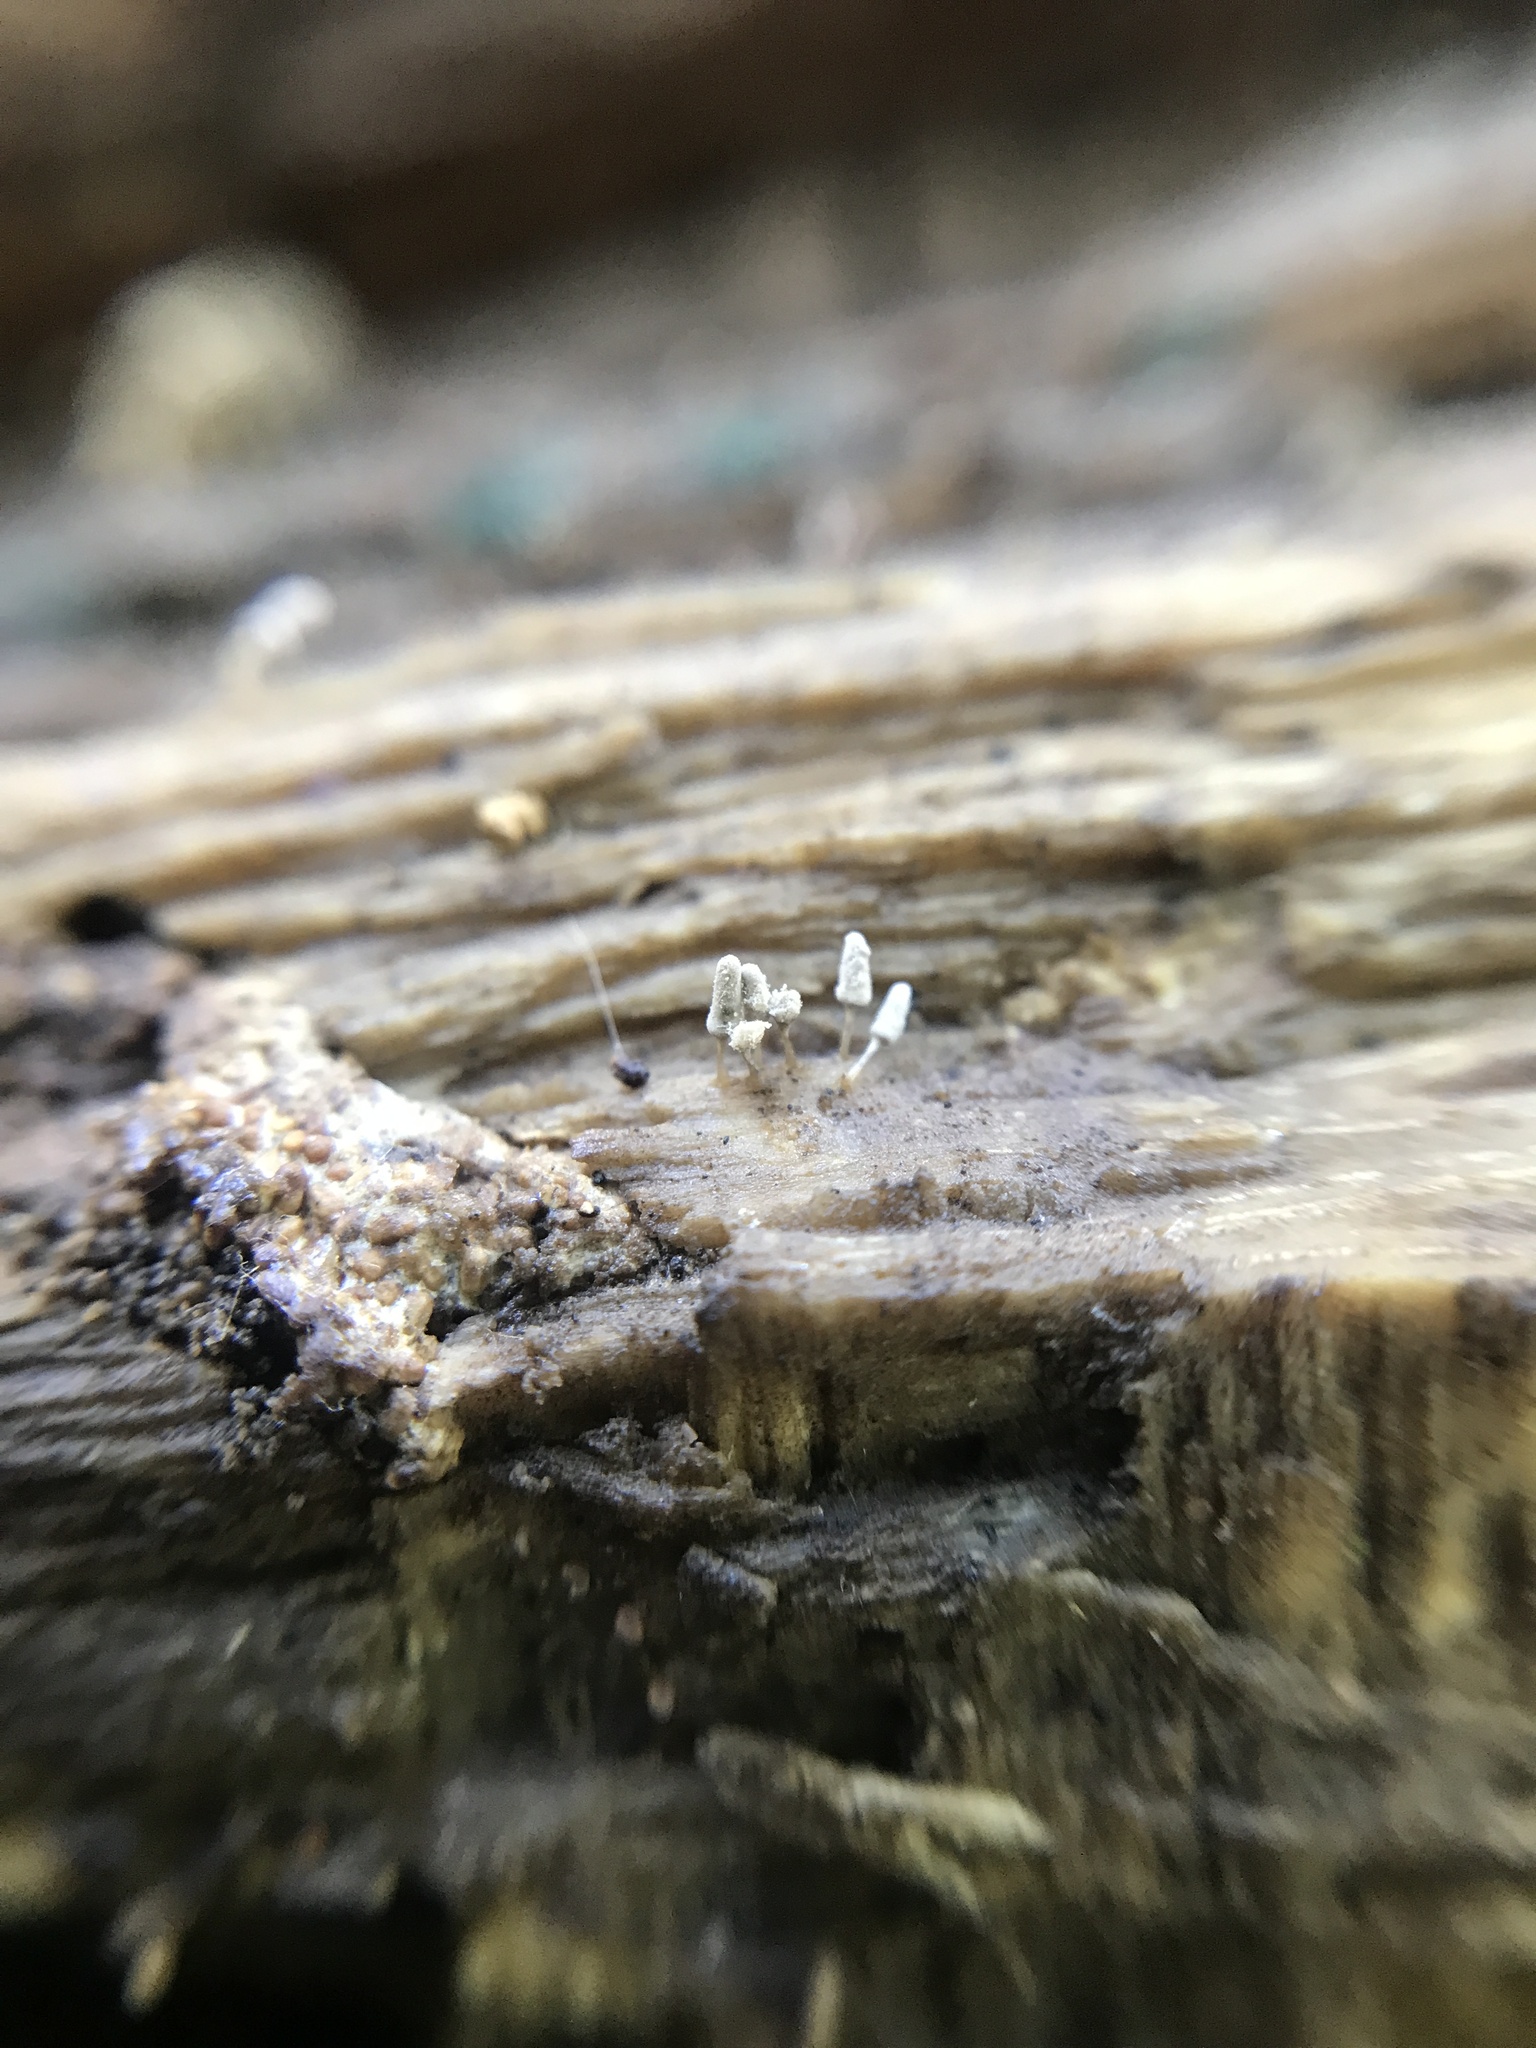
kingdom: Protozoa
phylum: Mycetozoa
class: Myxomycetes
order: Trichiales
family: Arcyriaceae
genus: Arcyria
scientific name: Arcyria cinerea
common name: White carnival candy slime mold
